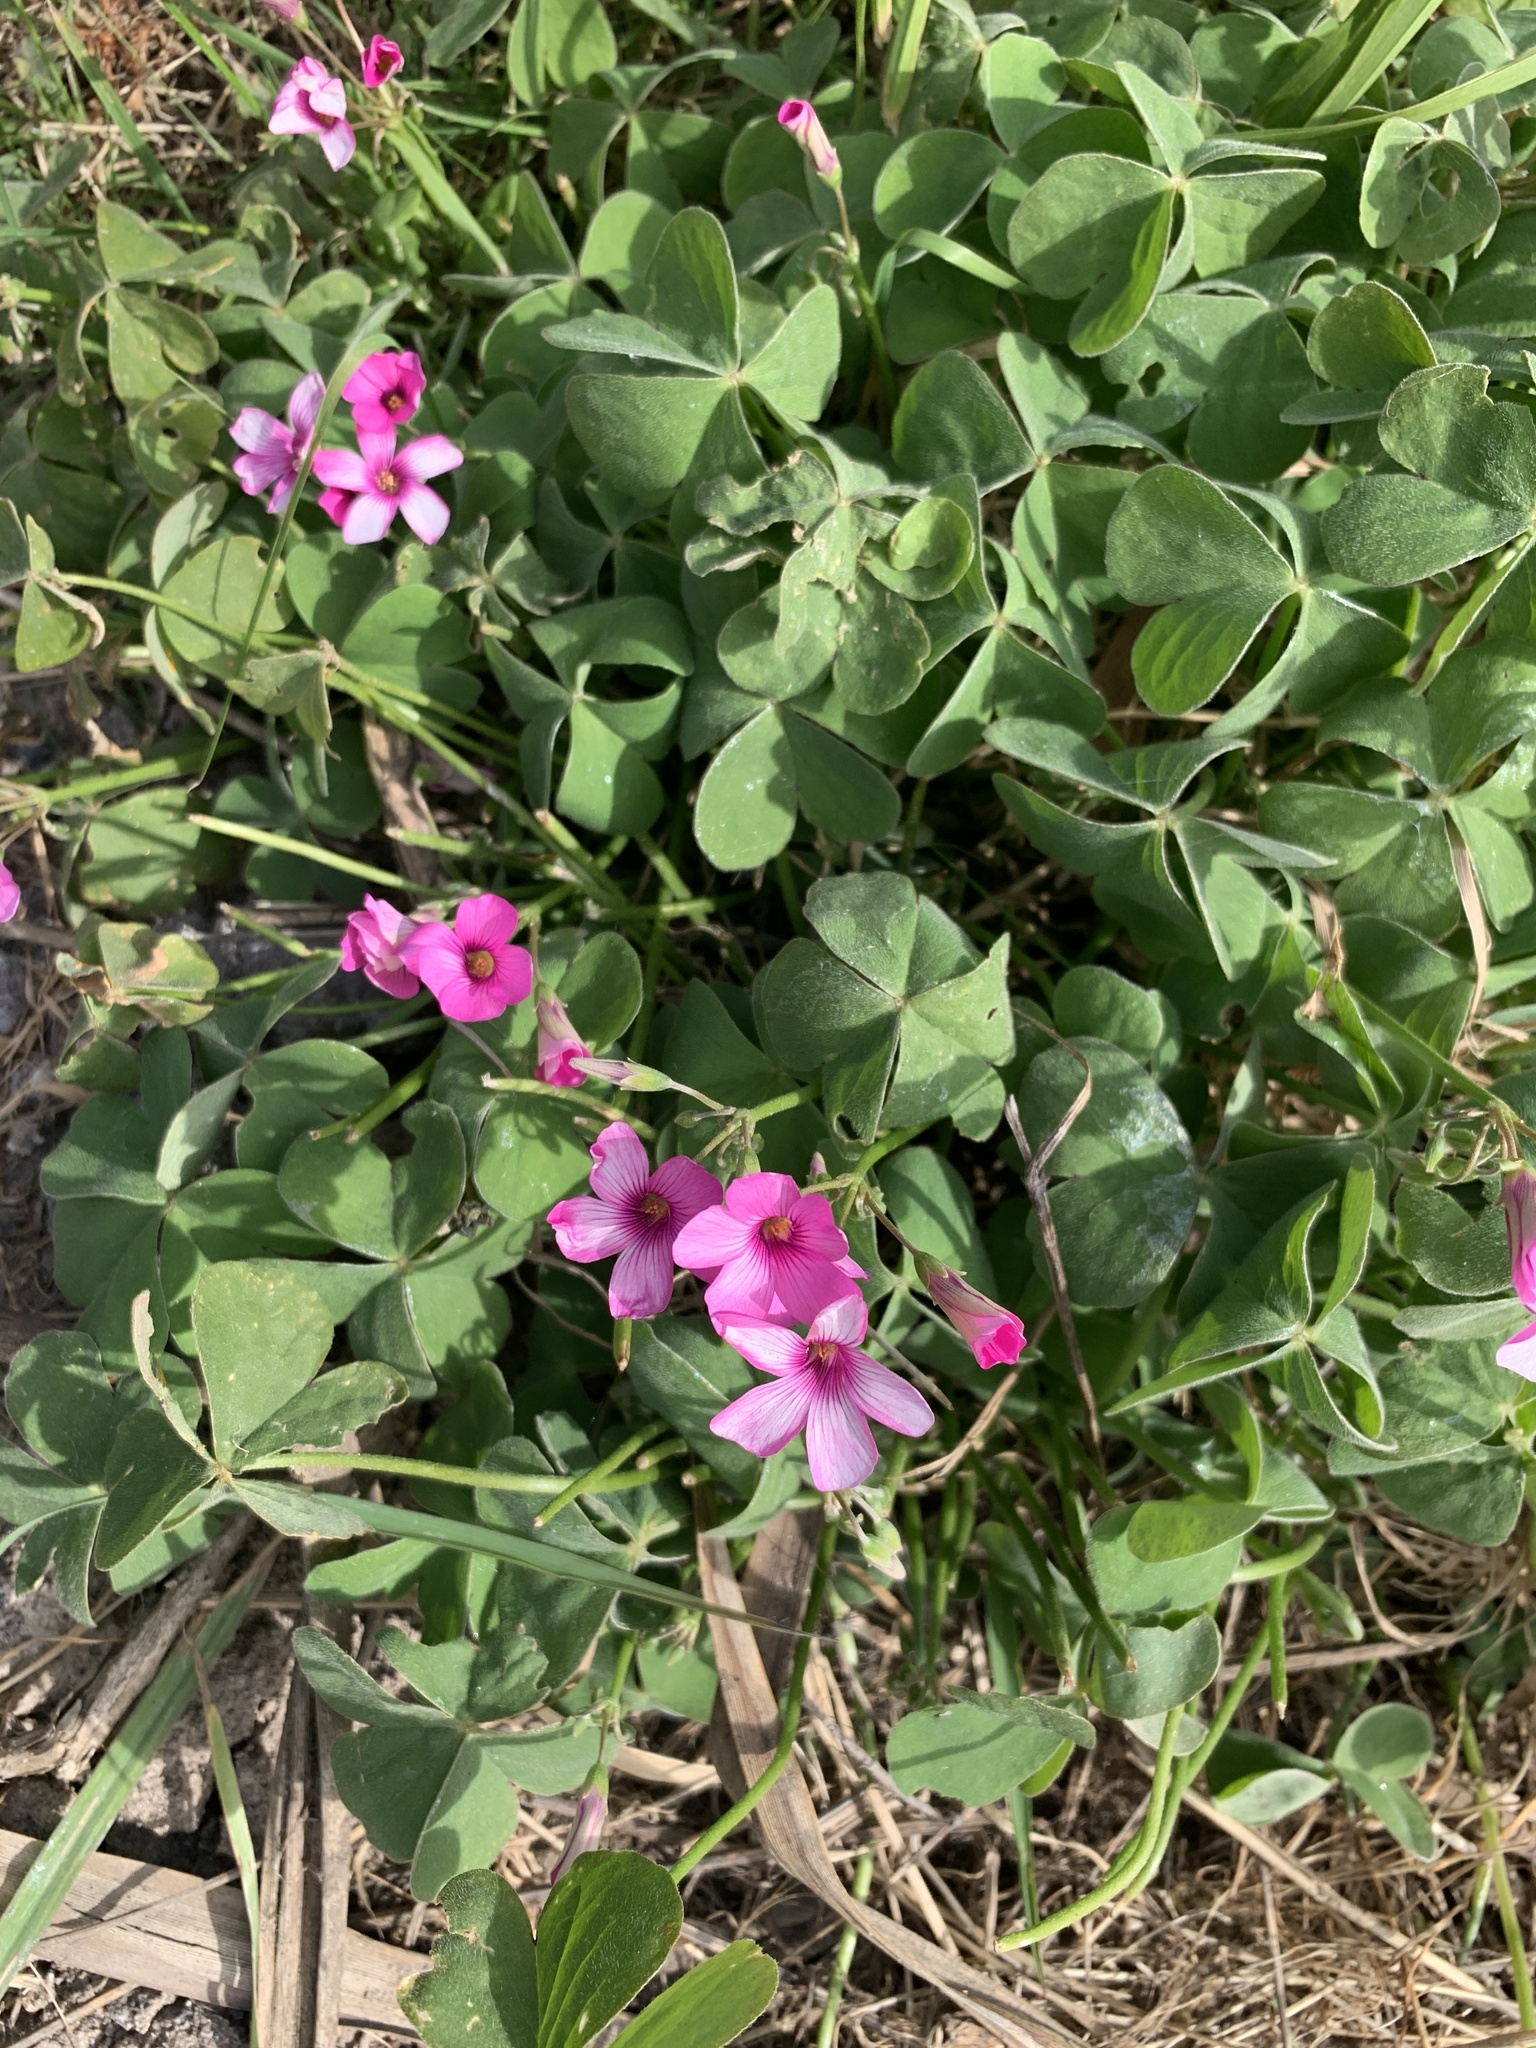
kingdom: Plantae
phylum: Tracheophyta
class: Magnoliopsida
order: Oxalidales
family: Oxalidaceae
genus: Oxalis
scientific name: Oxalis articulata
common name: Pink-sorrel
